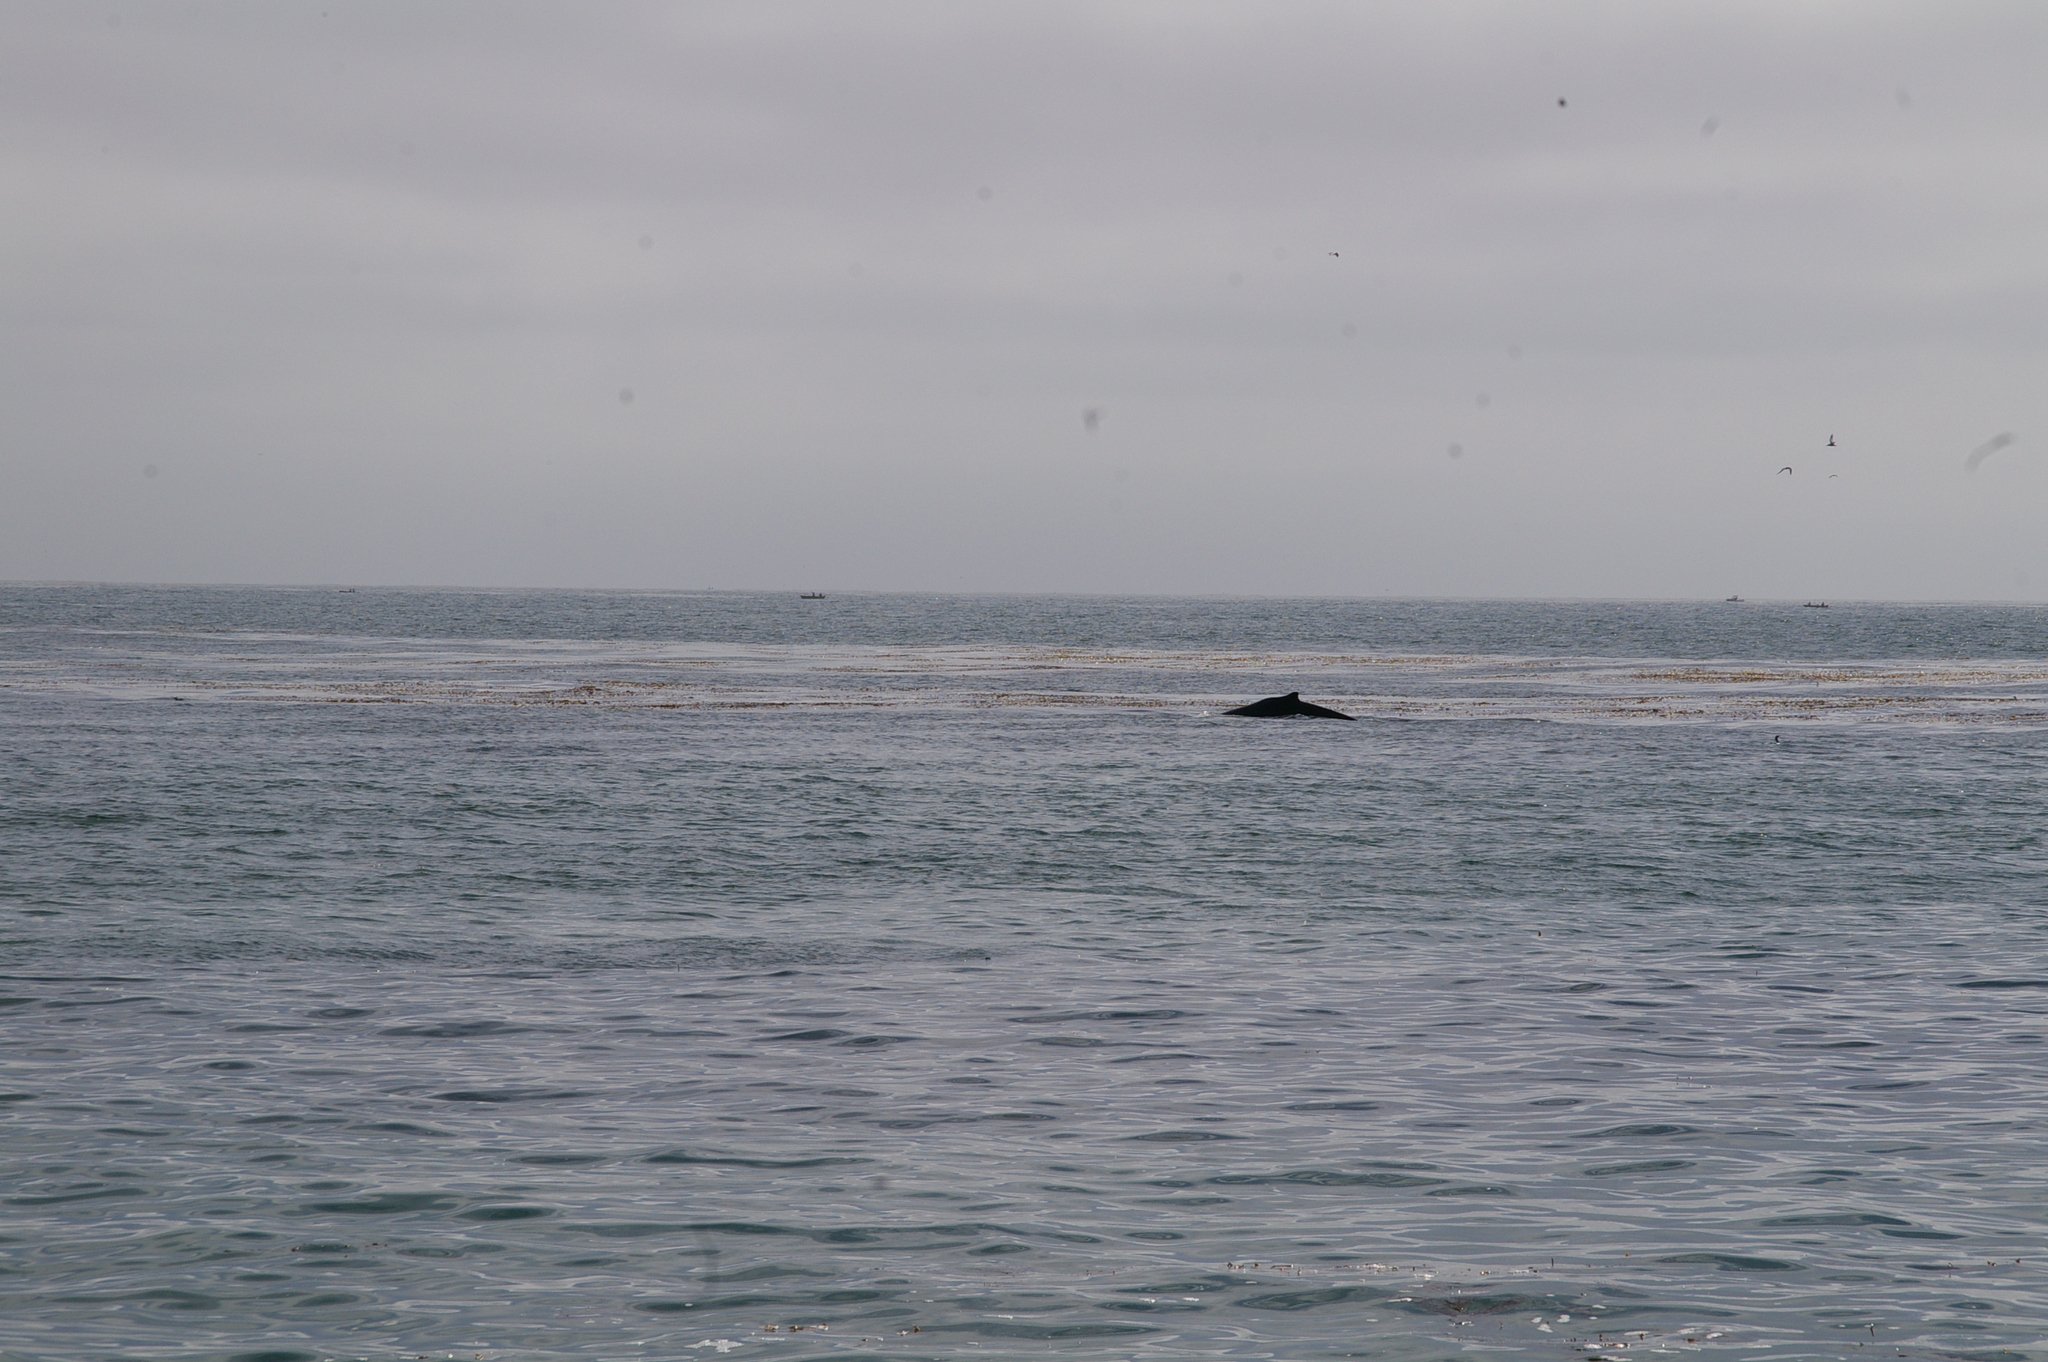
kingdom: Animalia
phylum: Chordata
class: Mammalia
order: Cetacea
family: Balaenopteridae
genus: Megaptera
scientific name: Megaptera novaeangliae
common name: Humpback whale
